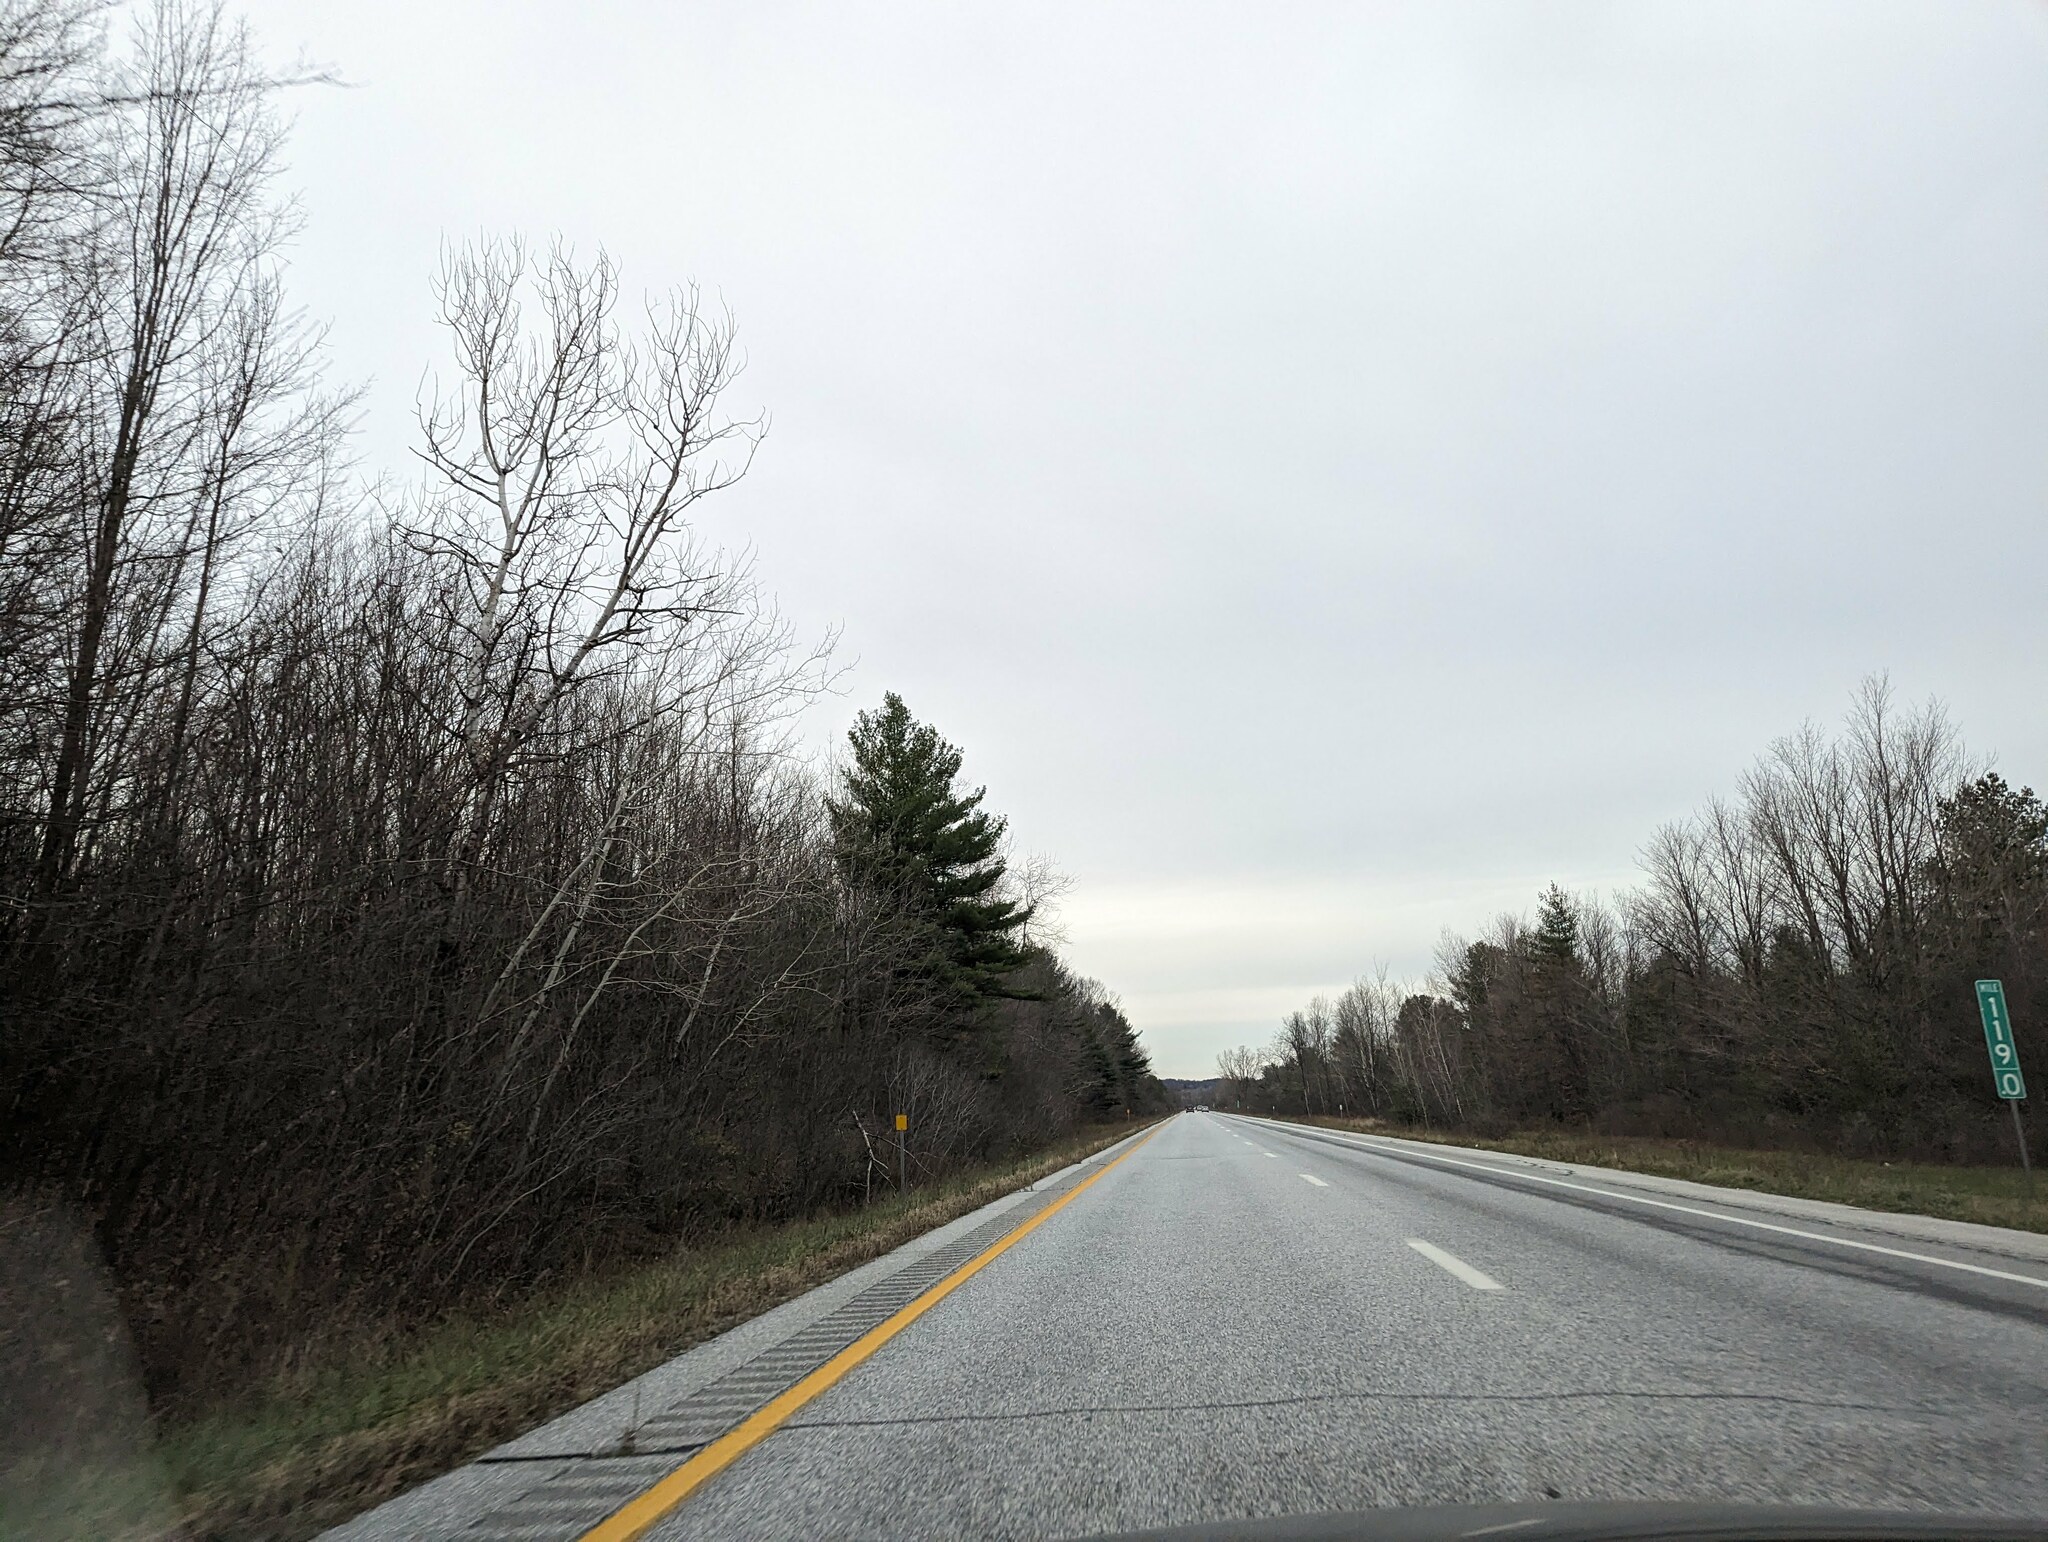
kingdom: Plantae
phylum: Tracheophyta
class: Pinopsida
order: Pinales
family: Pinaceae
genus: Pinus
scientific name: Pinus strobus
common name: Weymouth pine
